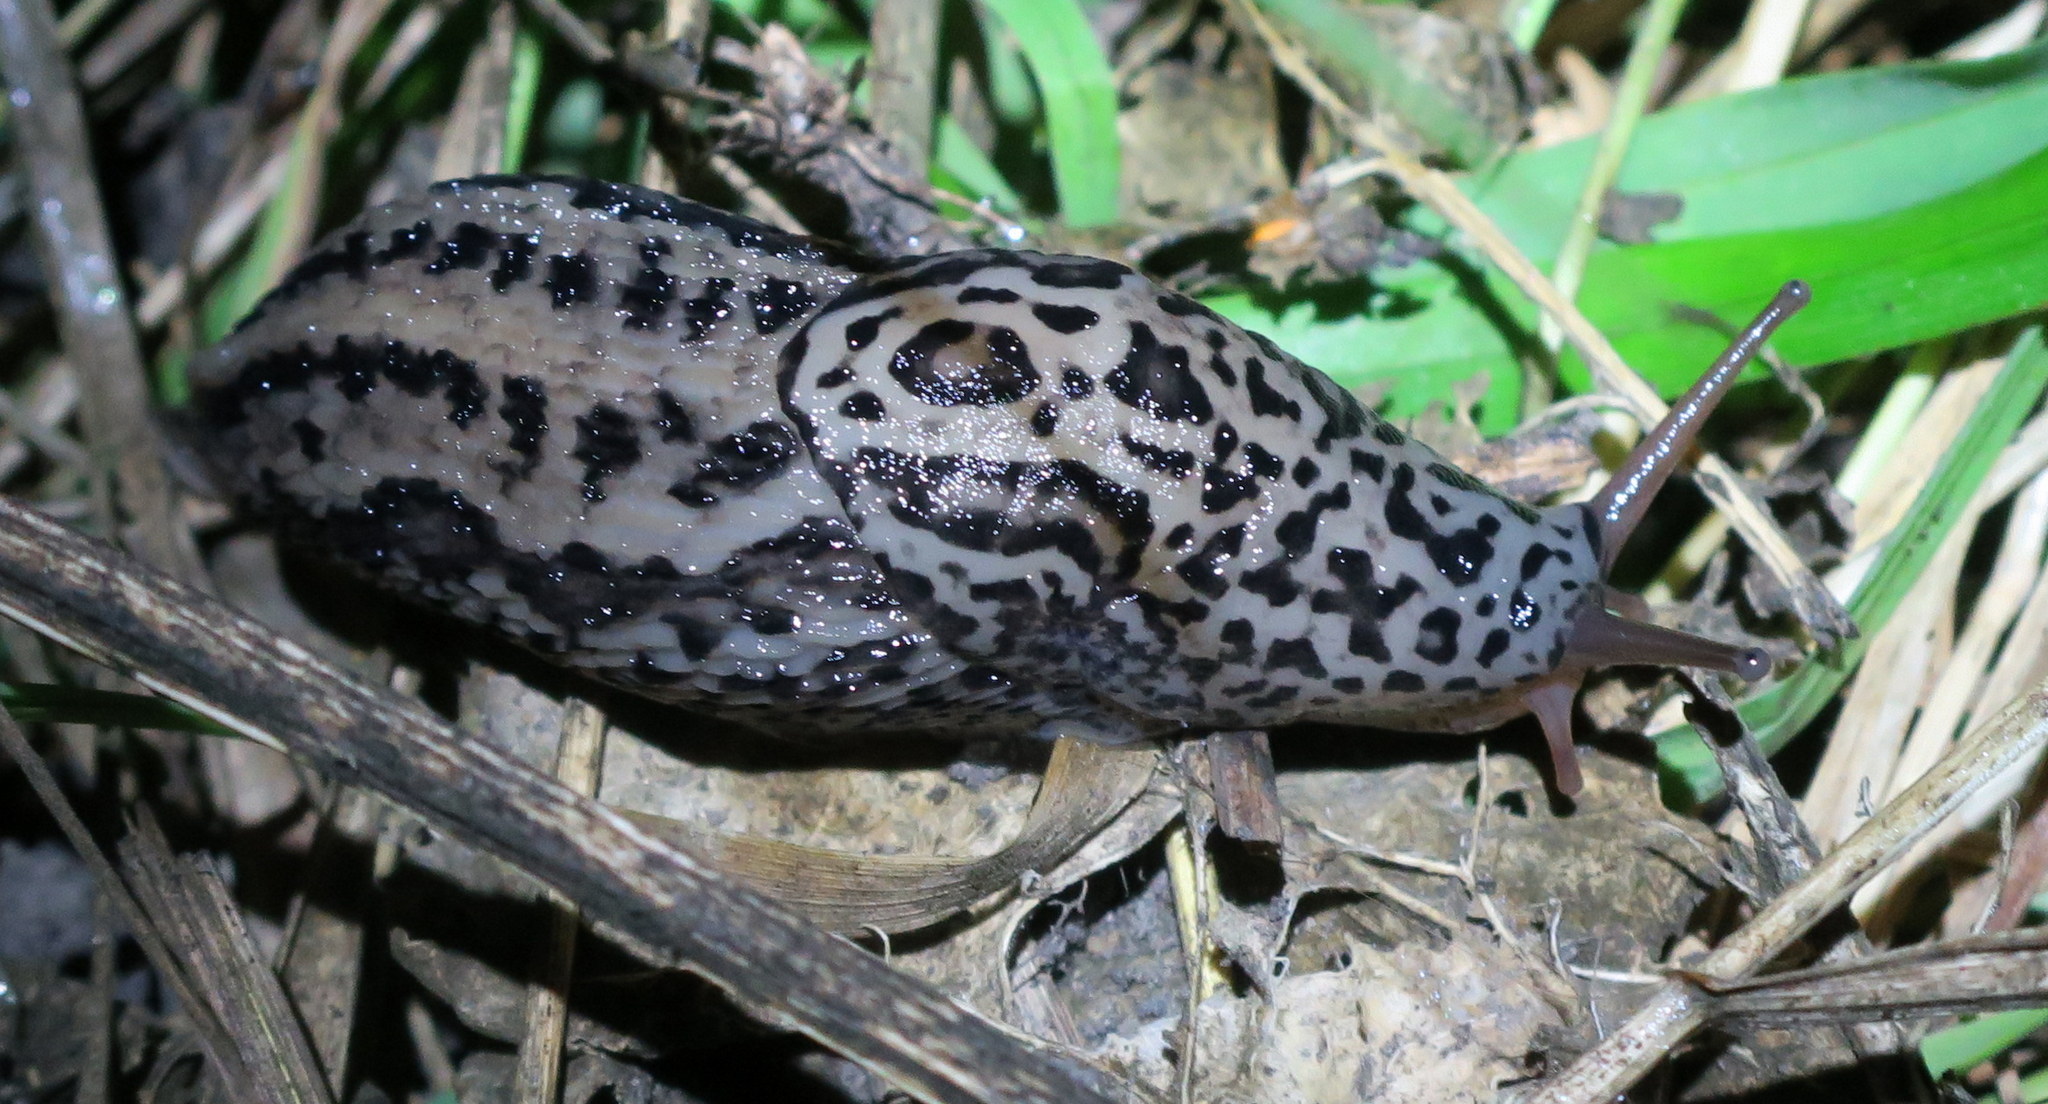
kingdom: Animalia
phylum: Mollusca
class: Gastropoda
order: Stylommatophora
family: Limacidae
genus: Limax
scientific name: Limax maximus
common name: Great grey slug
